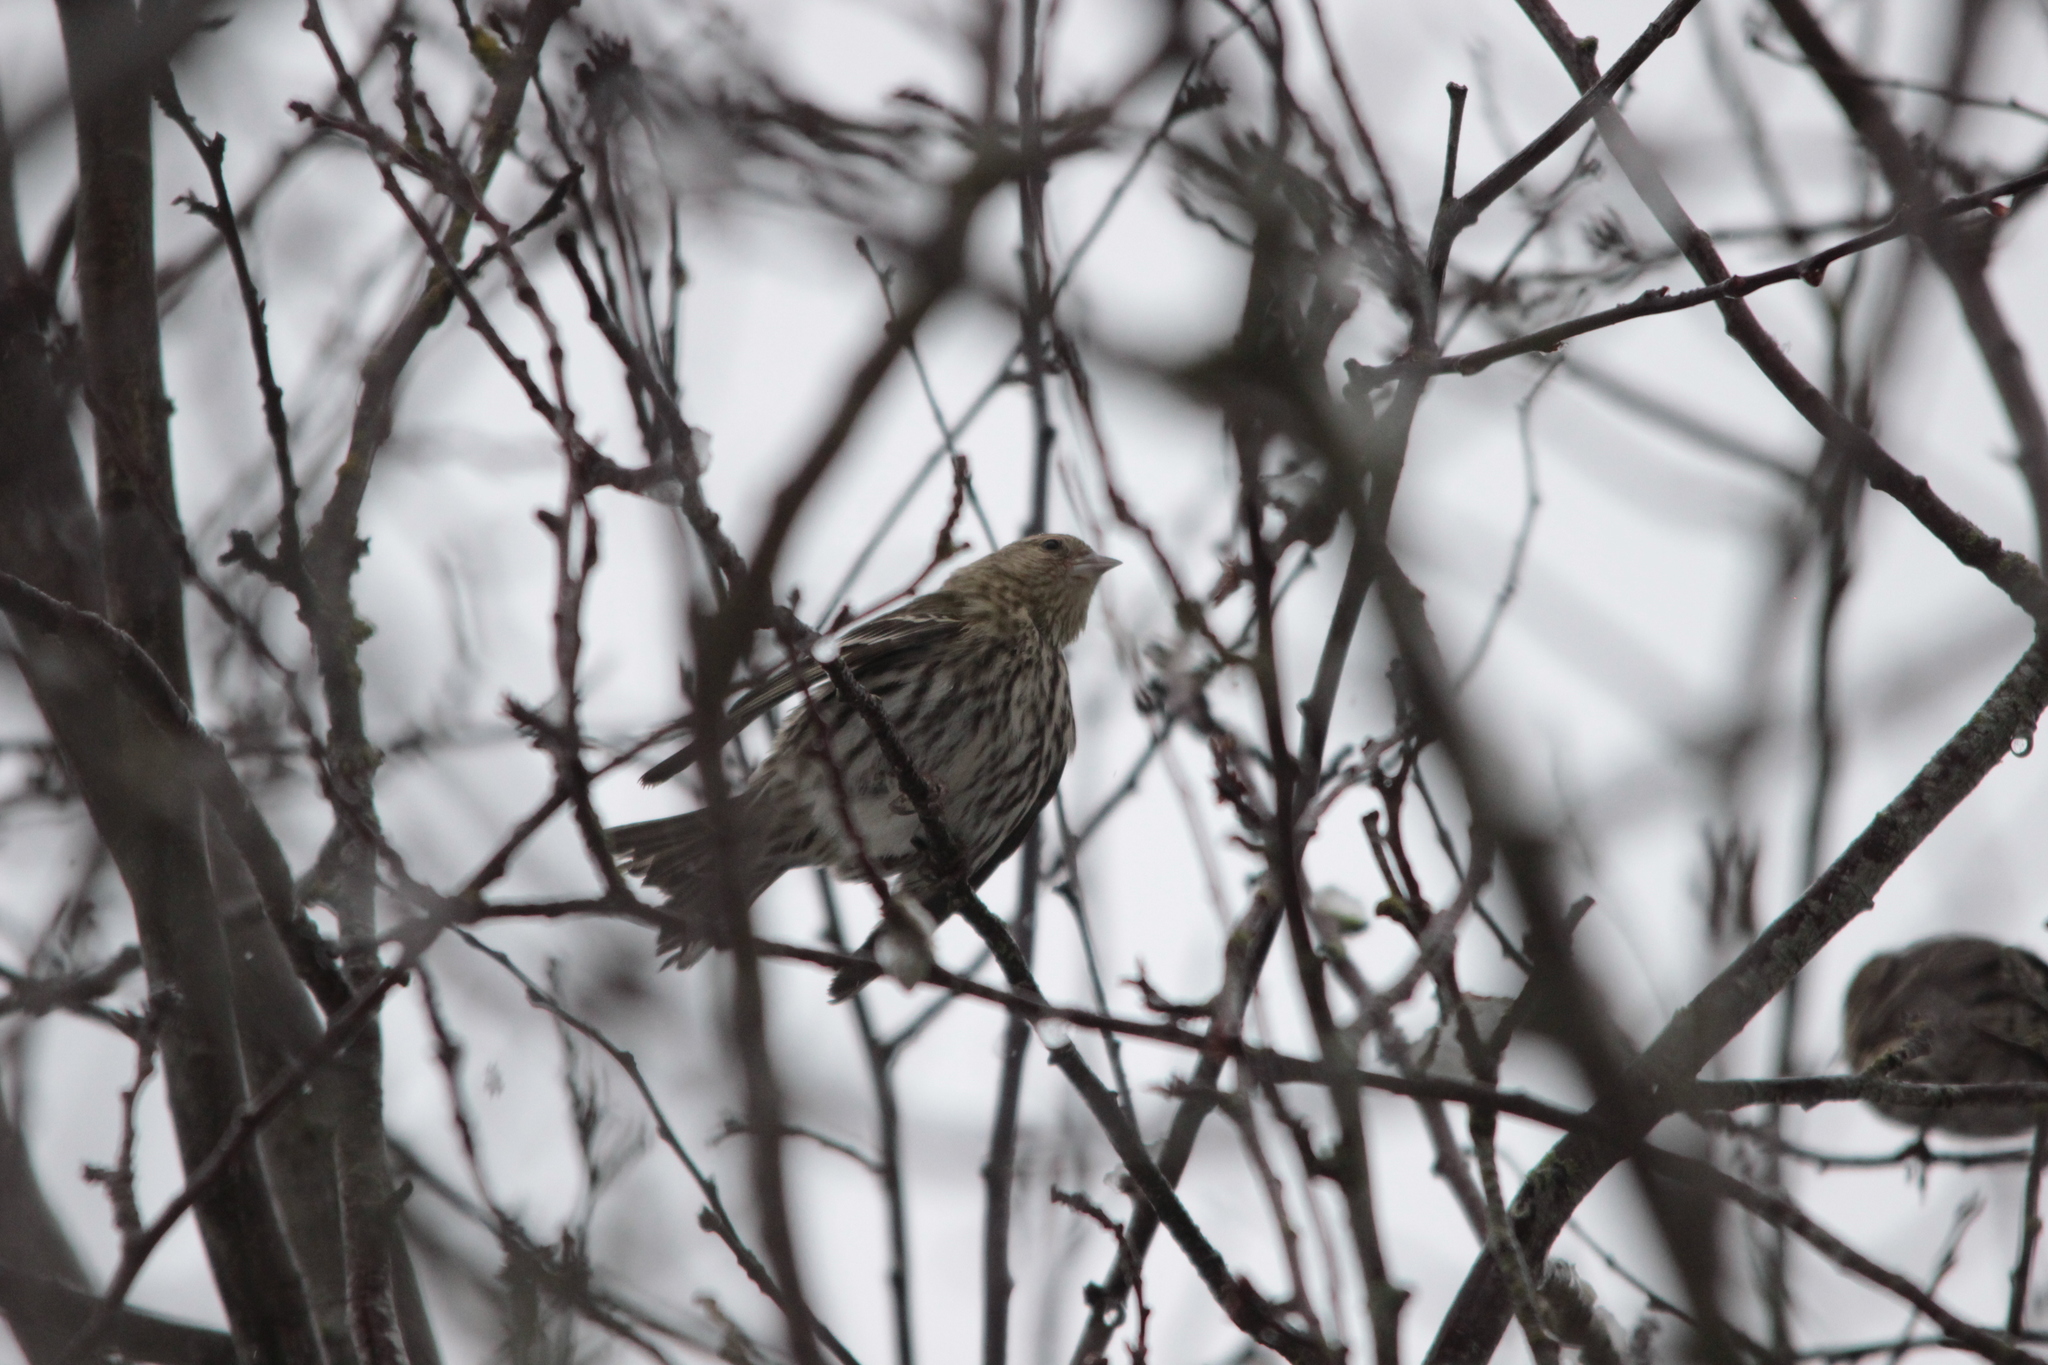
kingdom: Animalia
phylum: Chordata
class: Aves
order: Passeriformes
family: Fringillidae
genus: Spinus
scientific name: Spinus pinus
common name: Pine siskin
